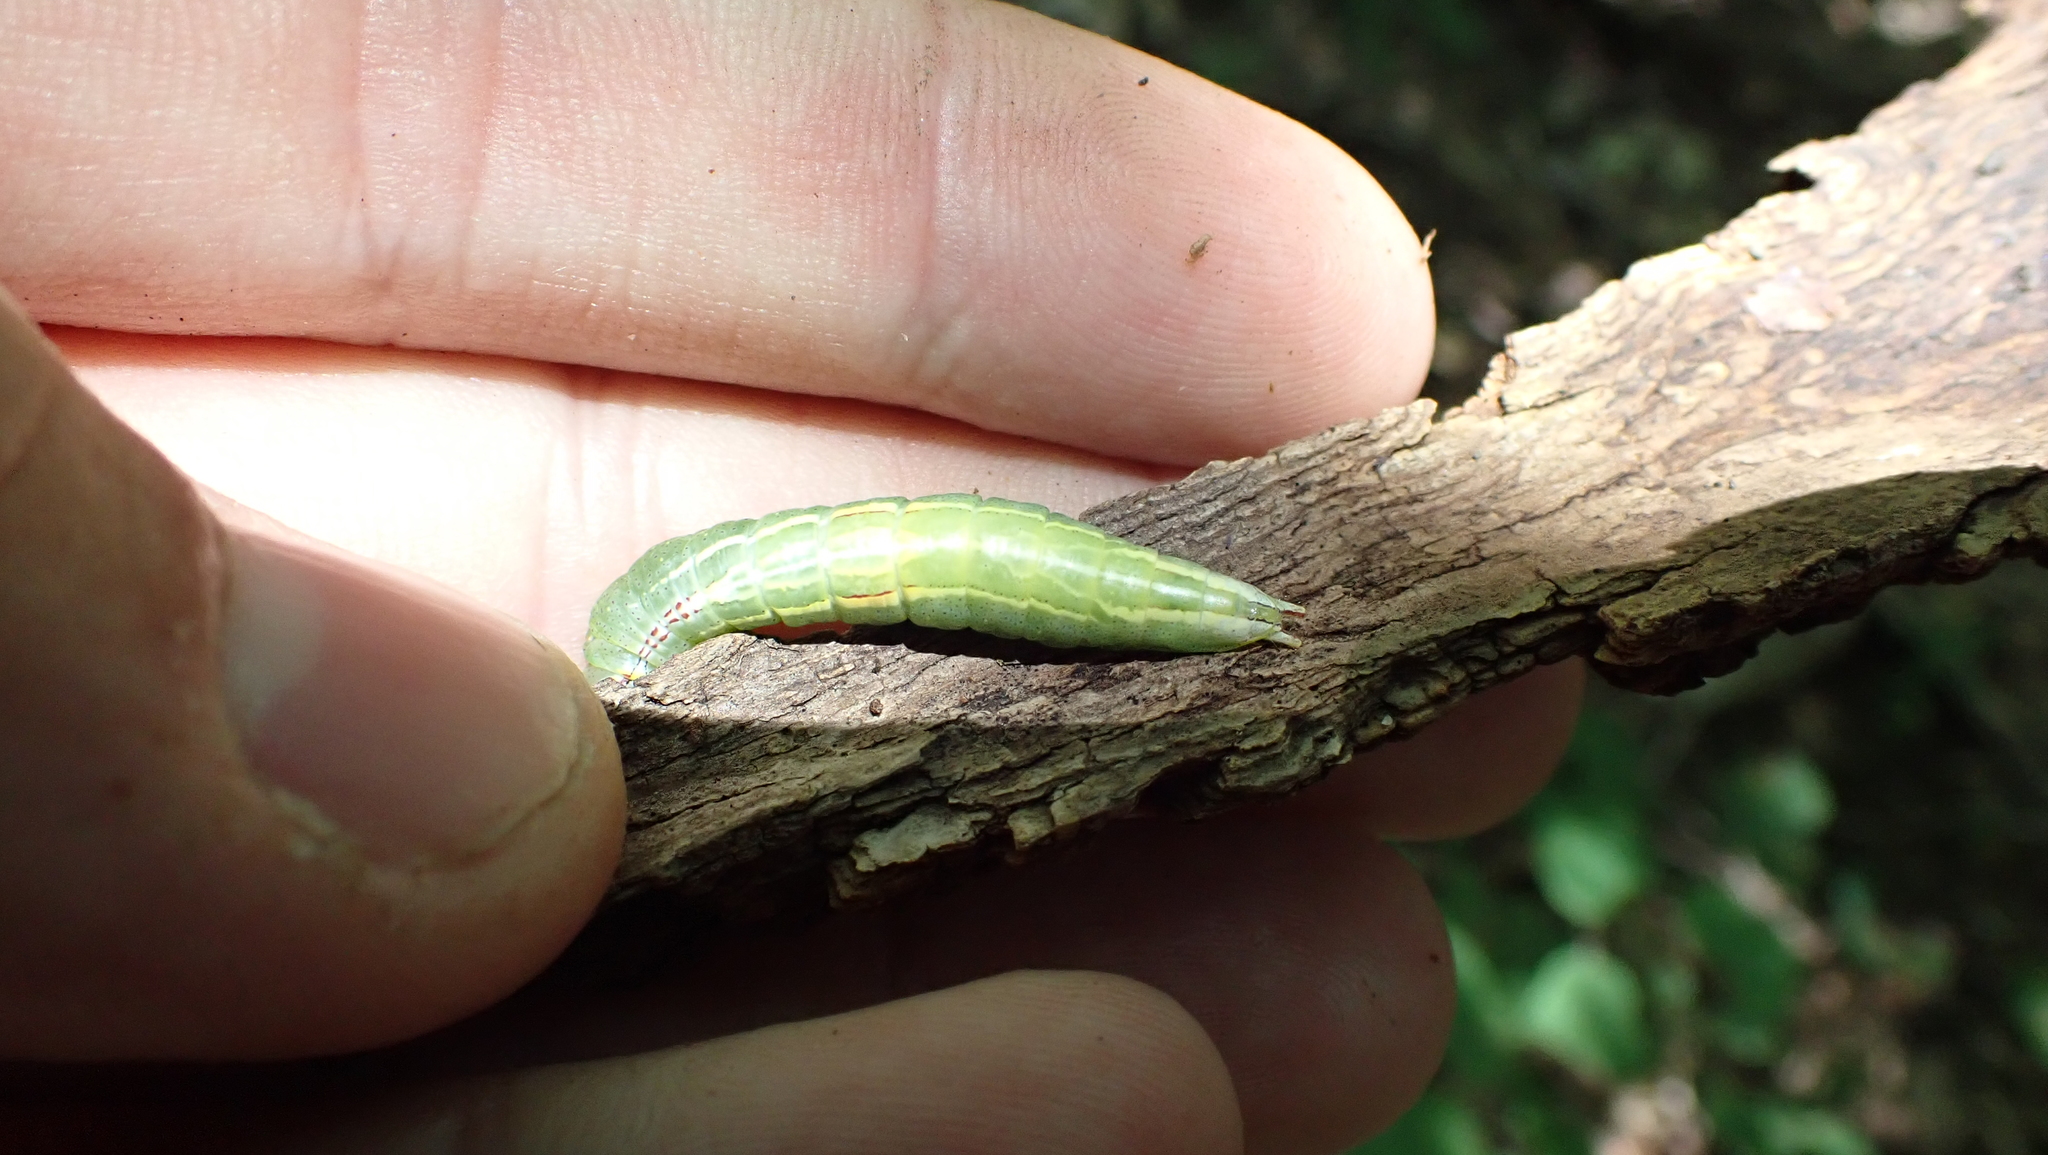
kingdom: Animalia
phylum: Arthropoda
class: Insecta
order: Lepidoptera
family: Notodontidae
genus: Disphragis
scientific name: Disphragis Cecrita guttivitta
